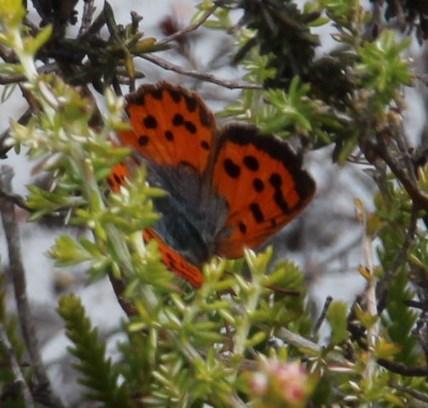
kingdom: Animalia
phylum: Arthropoda
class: Insecta
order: Lepidoptera
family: Lycaenidae
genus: Chrysoritis
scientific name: Chrysoritis pyroeis
